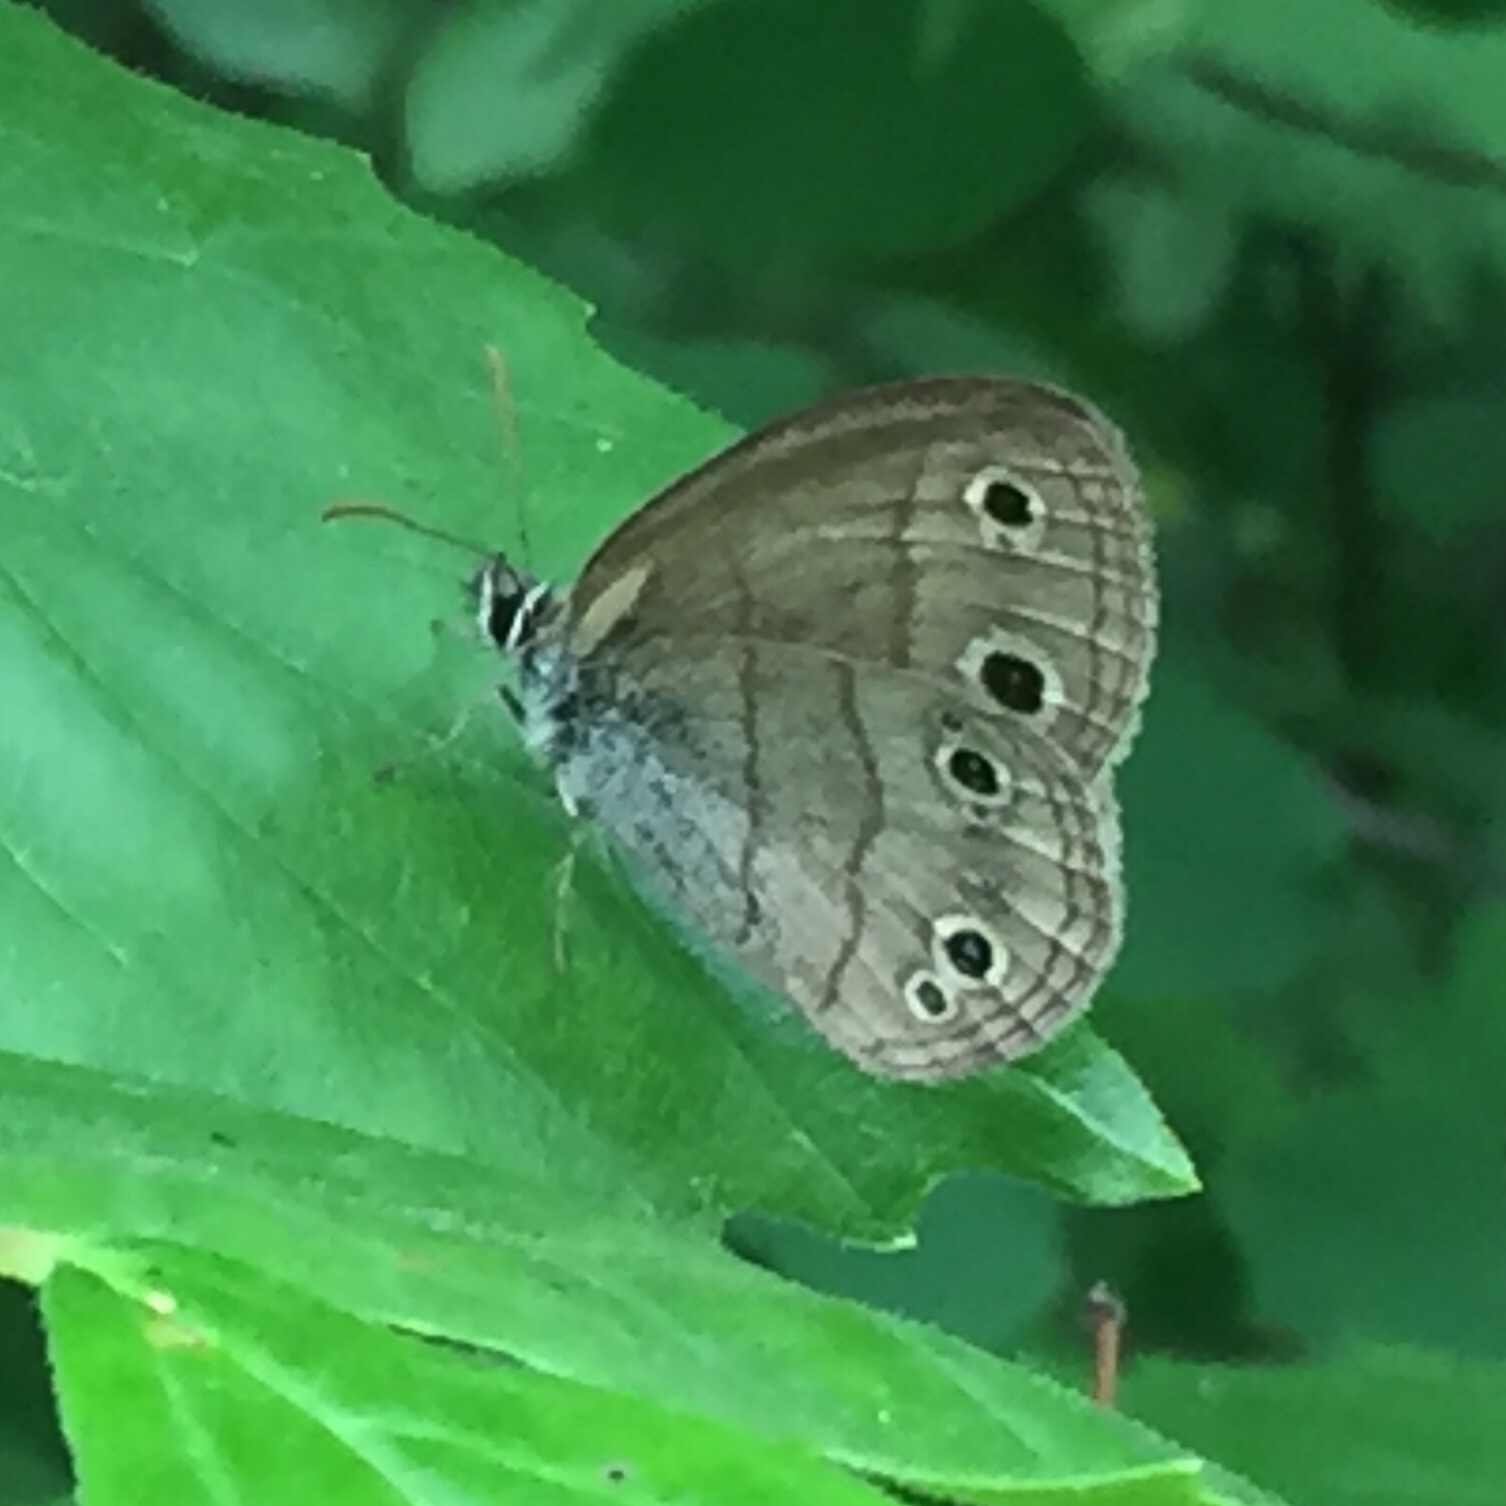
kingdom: Animalia
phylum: Arthropoda
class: Insecta
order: Lepidoptera
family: Nymphalidae
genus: Euptychia
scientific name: Euptychia cymela
